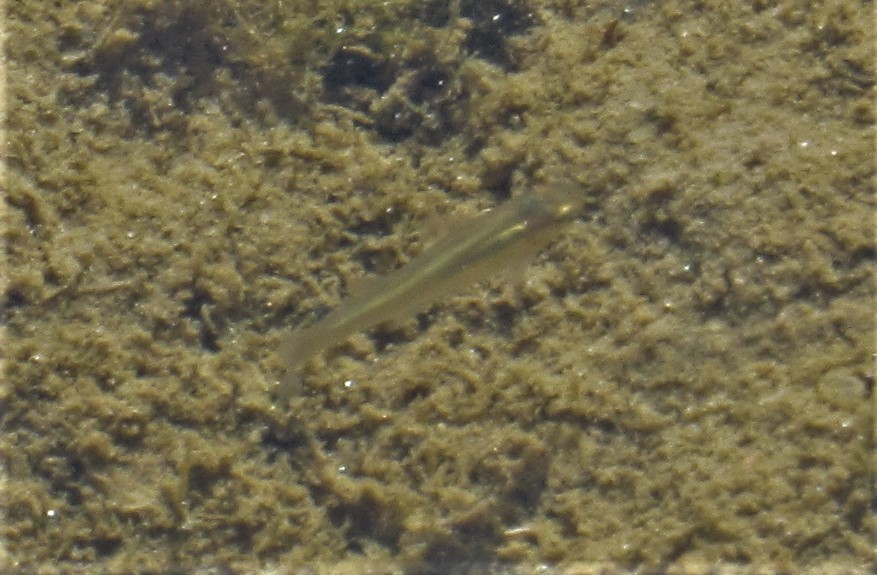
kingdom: Animalia
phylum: Chordata
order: Cyprinodontiformes
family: Poeciliidae
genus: Gambusia
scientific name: Gambusia affinis
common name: Mosquitofish
